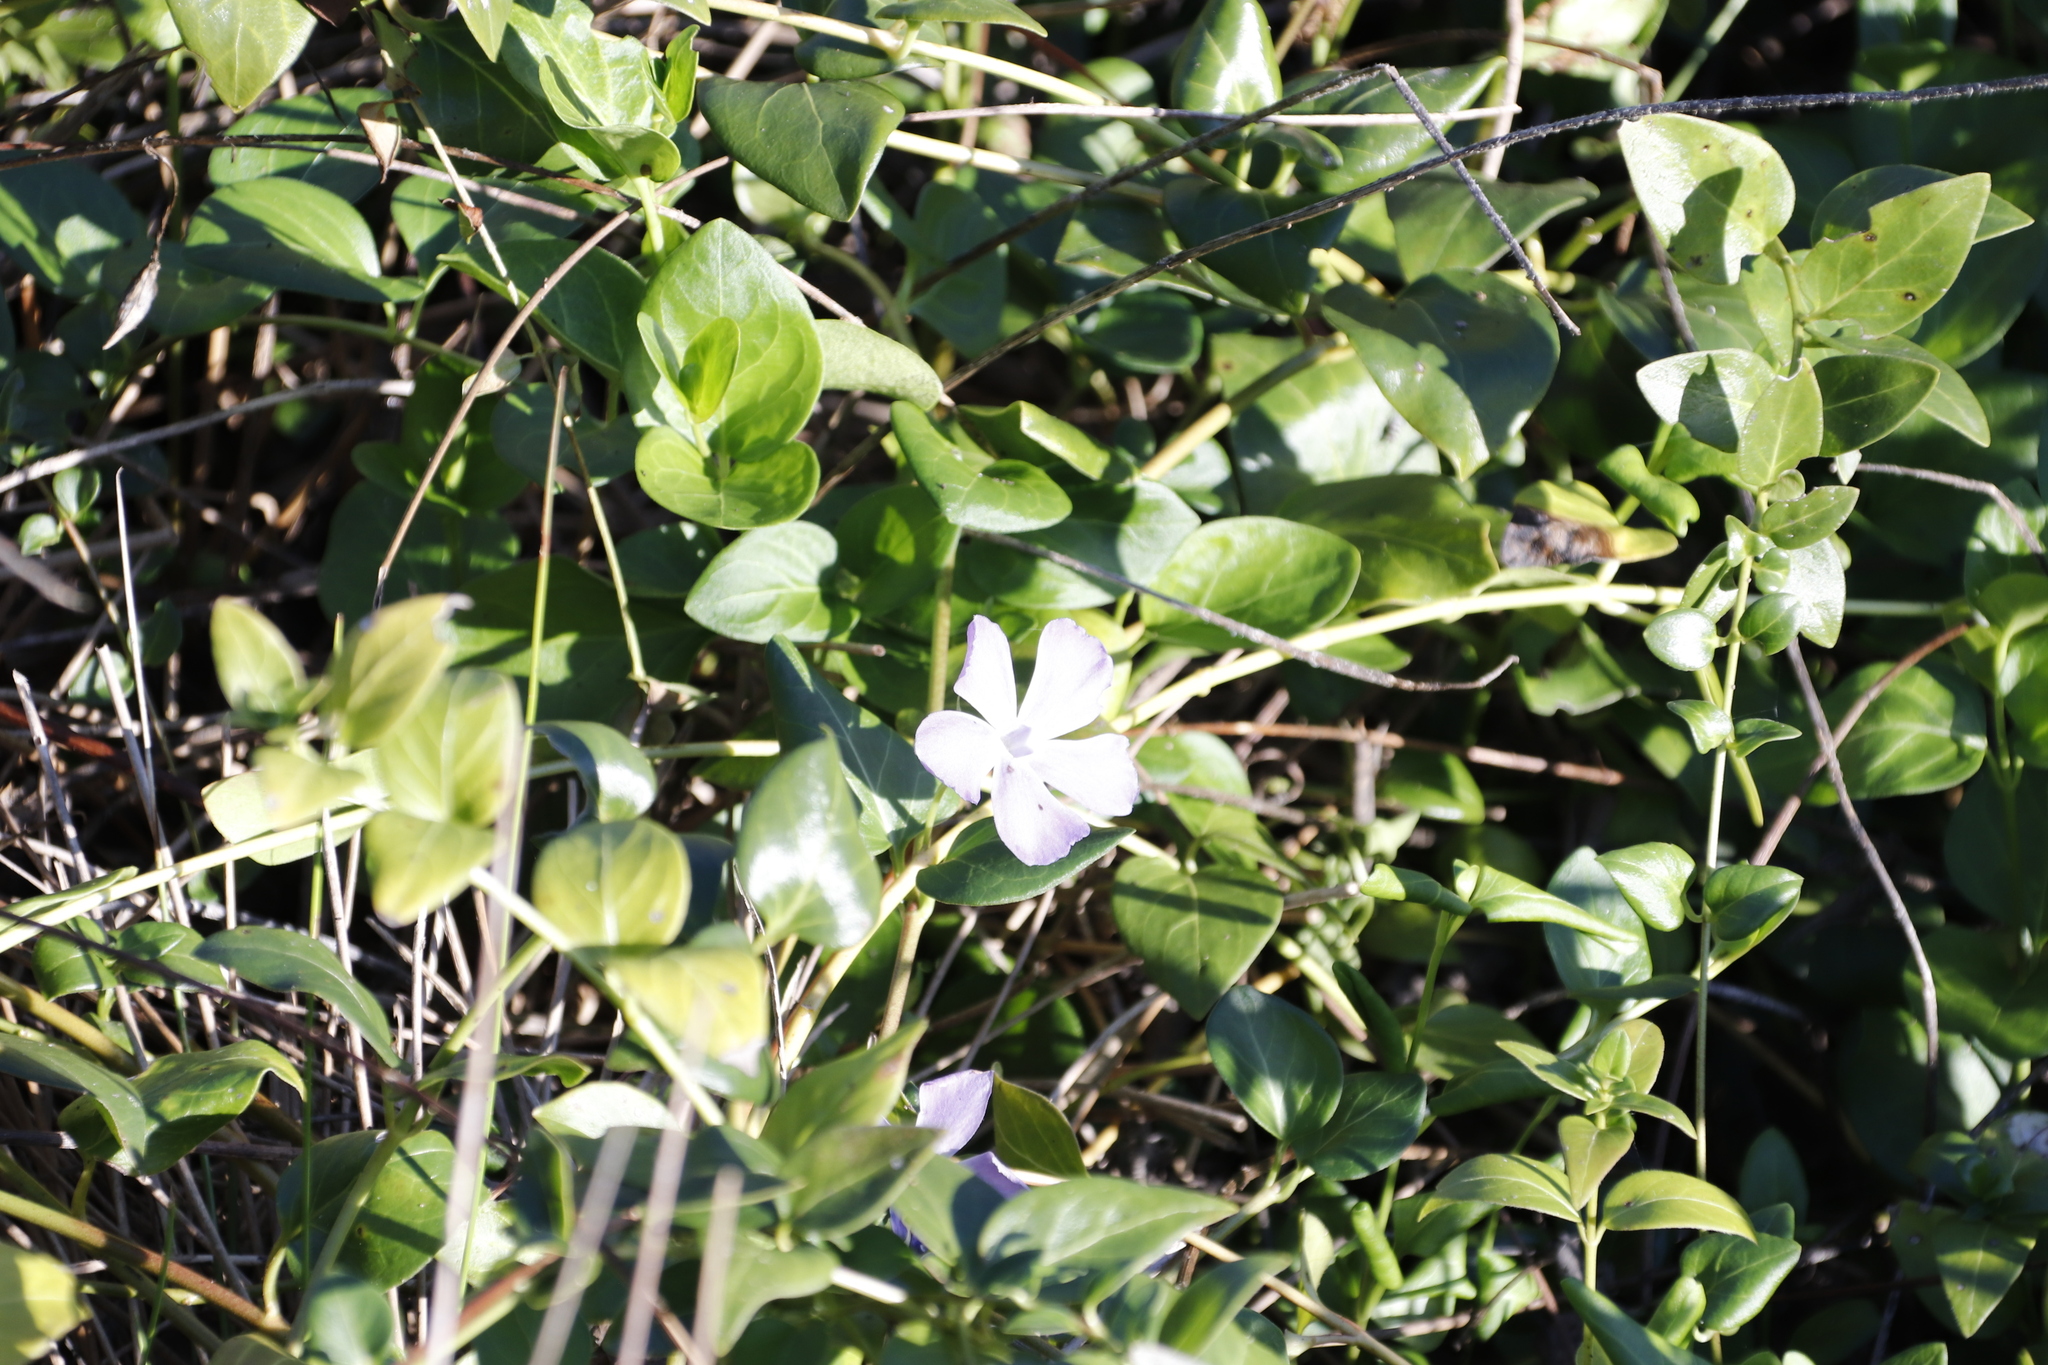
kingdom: Plantae
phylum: Tracheophyta
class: Magnoliopsida
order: Gentianales
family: Apocynaceae
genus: Vinca
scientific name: Vinca major
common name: Greater periwinkle
